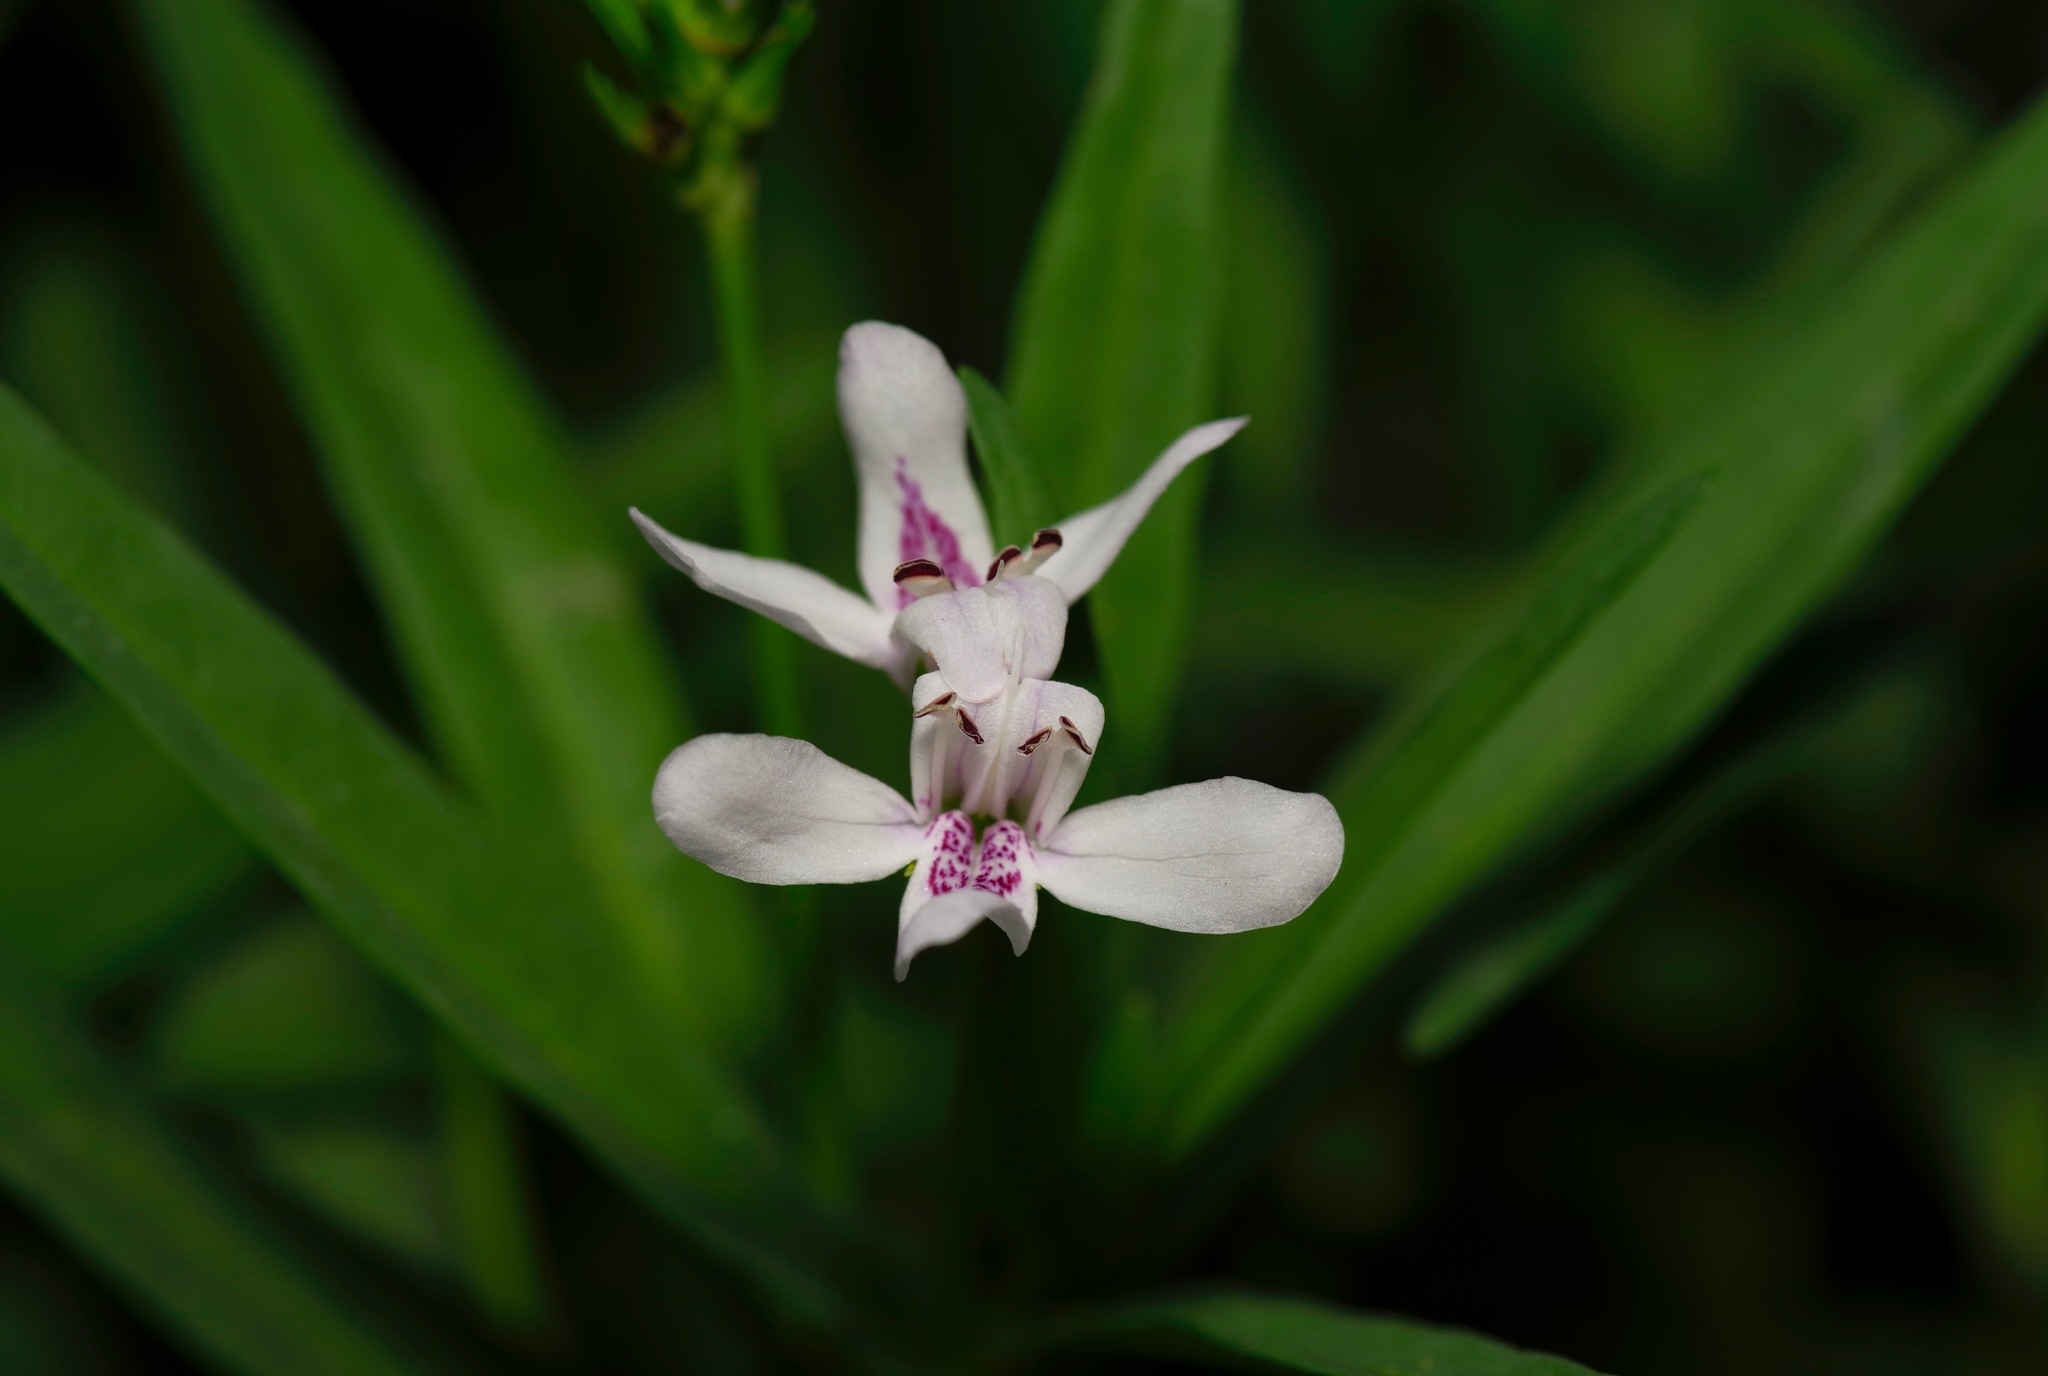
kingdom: Plantae
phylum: Tracheophyta
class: Magnoliopsida
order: Lamiales
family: Acanthaceae
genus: Dianthera
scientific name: Dianthera americana
